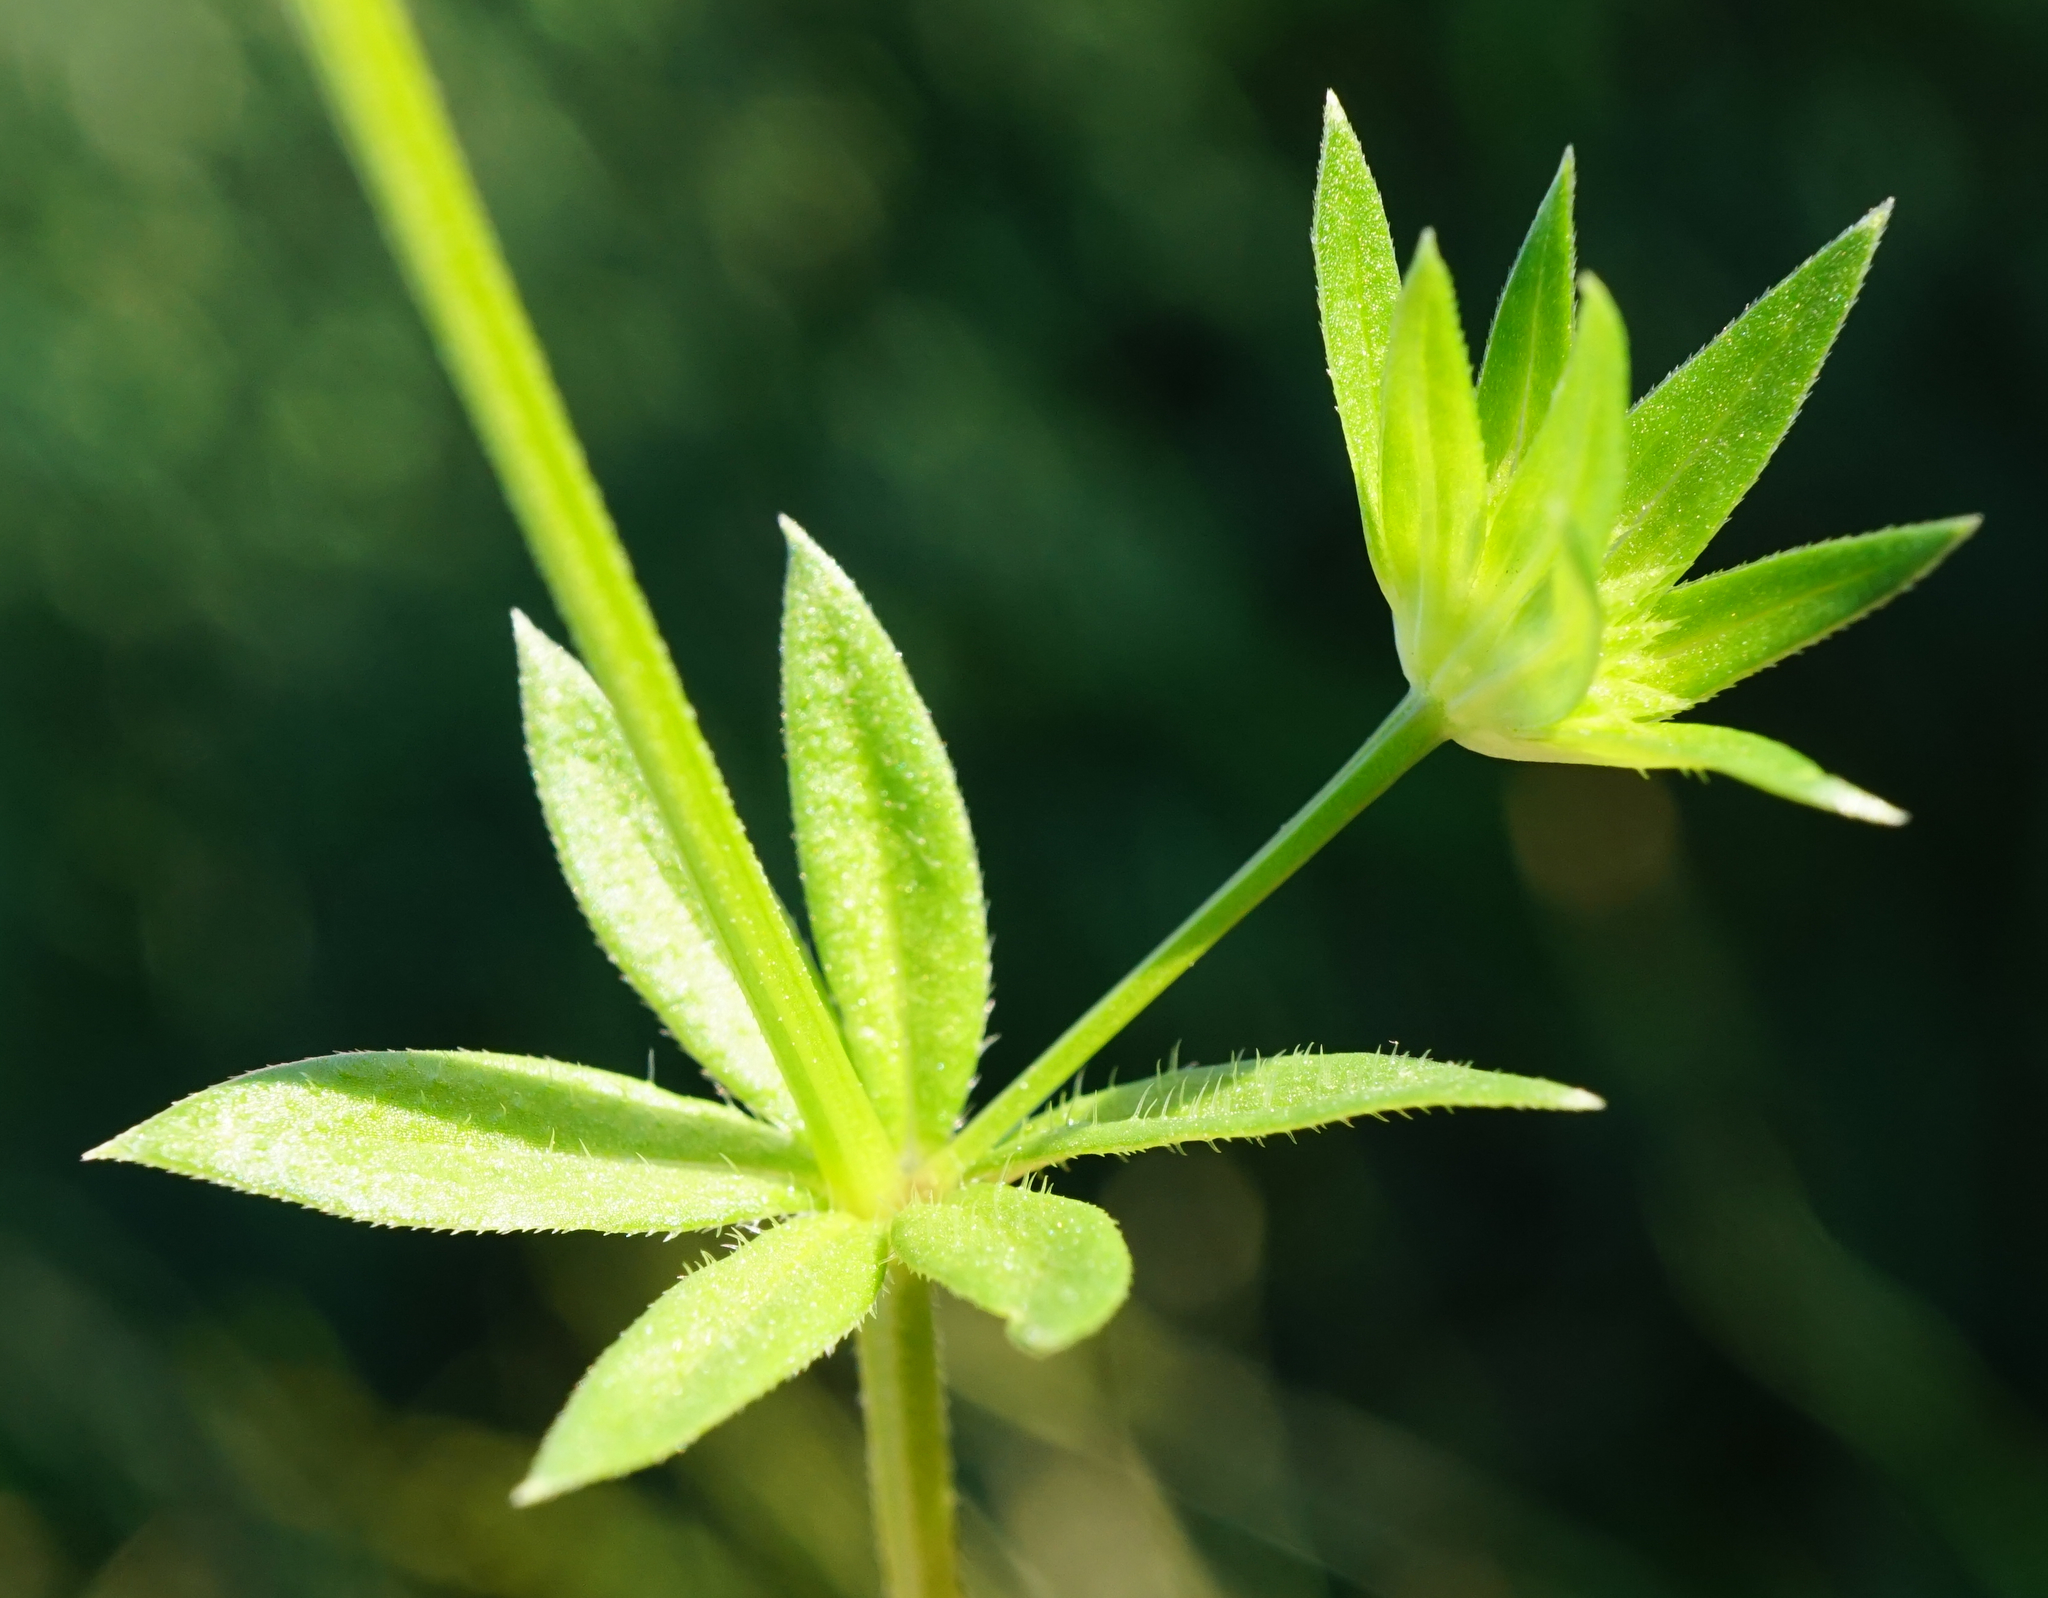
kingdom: Plantae
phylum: Tracheophyta
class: Magnoliopsida
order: Gentianales
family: Rubiaceae
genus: Sherardia
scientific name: Sherardia arvensis
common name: Field madder
